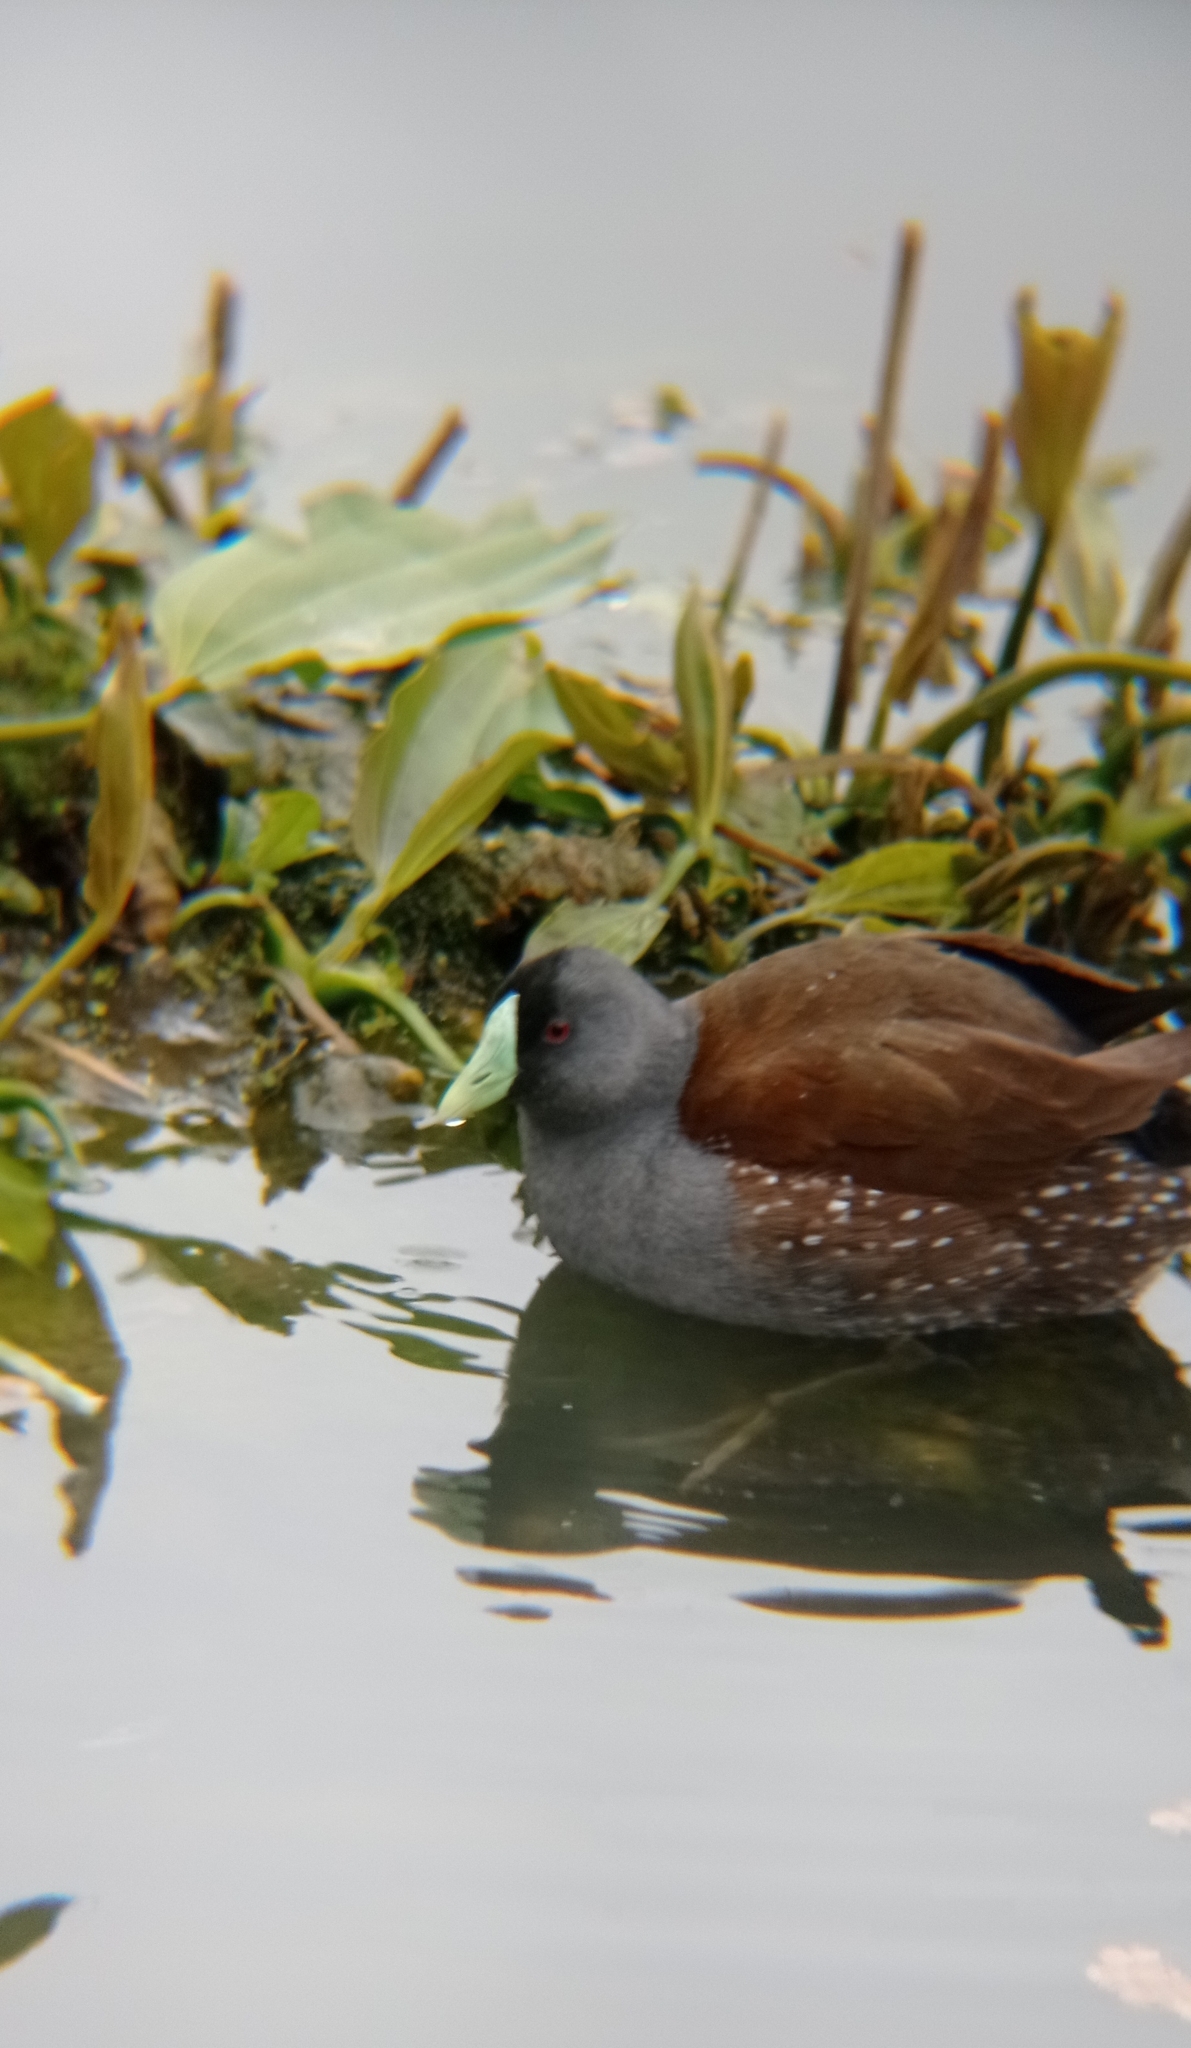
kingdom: Animalia
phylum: Chordata
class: Aves
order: Gruiformes
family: Rallidae
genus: Gallinula
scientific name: Gallinula melanops
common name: Spot-flanked gallinule
